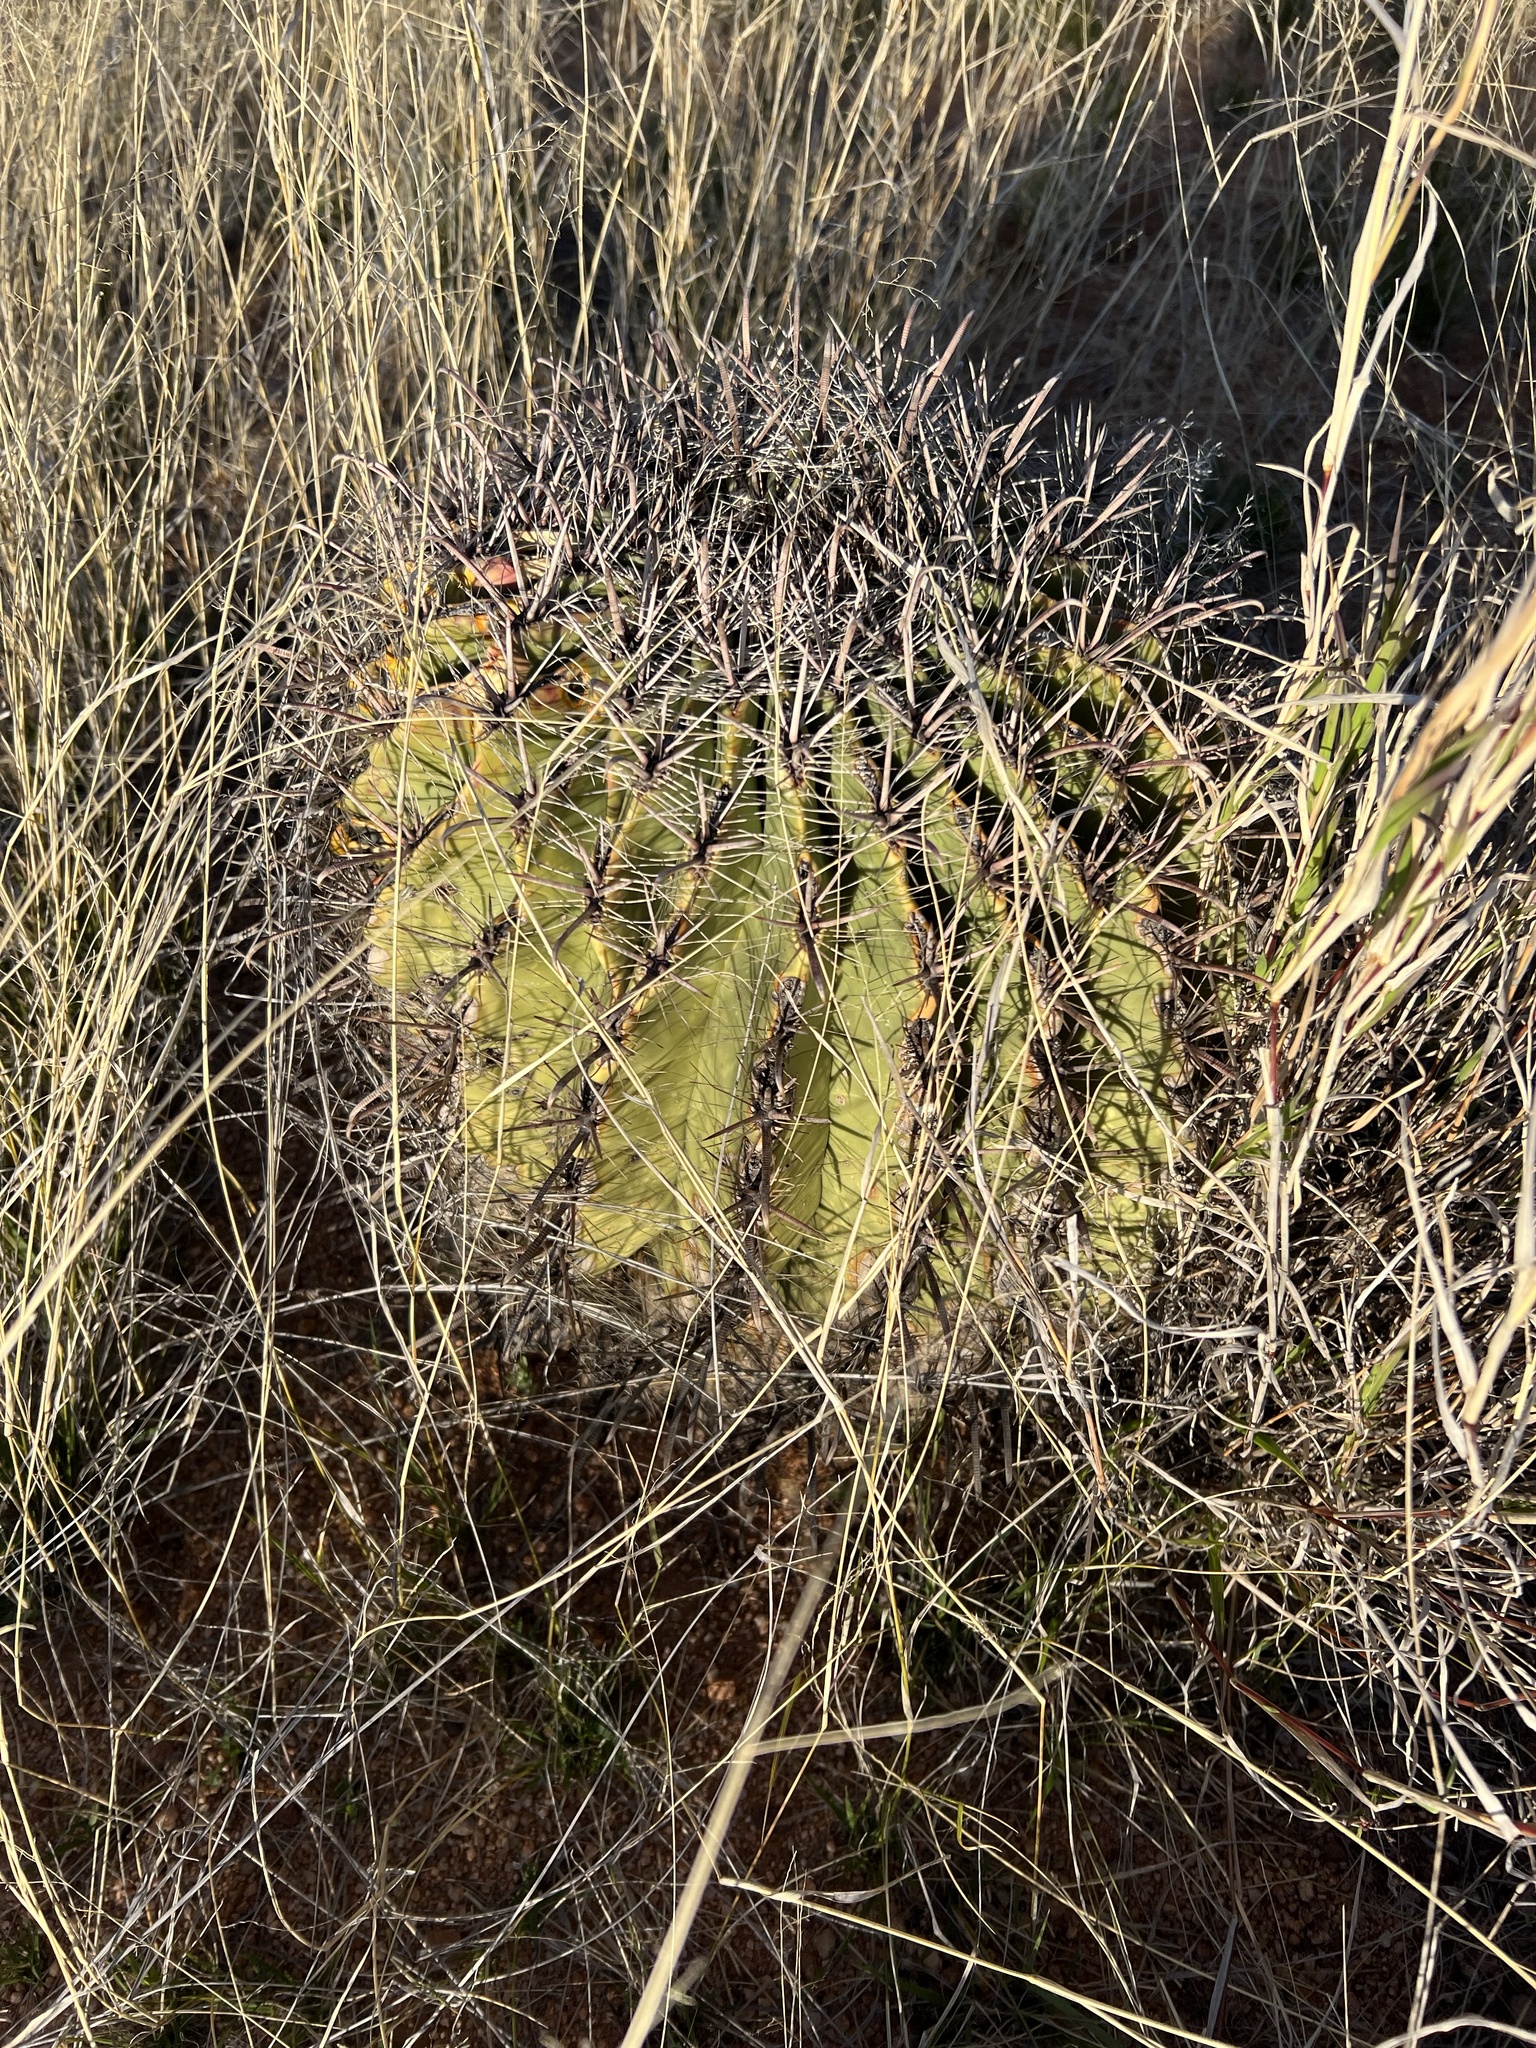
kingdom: Plantae
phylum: Tracheophyta
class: Magnoliopsida
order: Caryophyllales
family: Cactaceae
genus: Ferocactus
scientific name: Ferocactus wislizeni
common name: Candy barrel cactus
